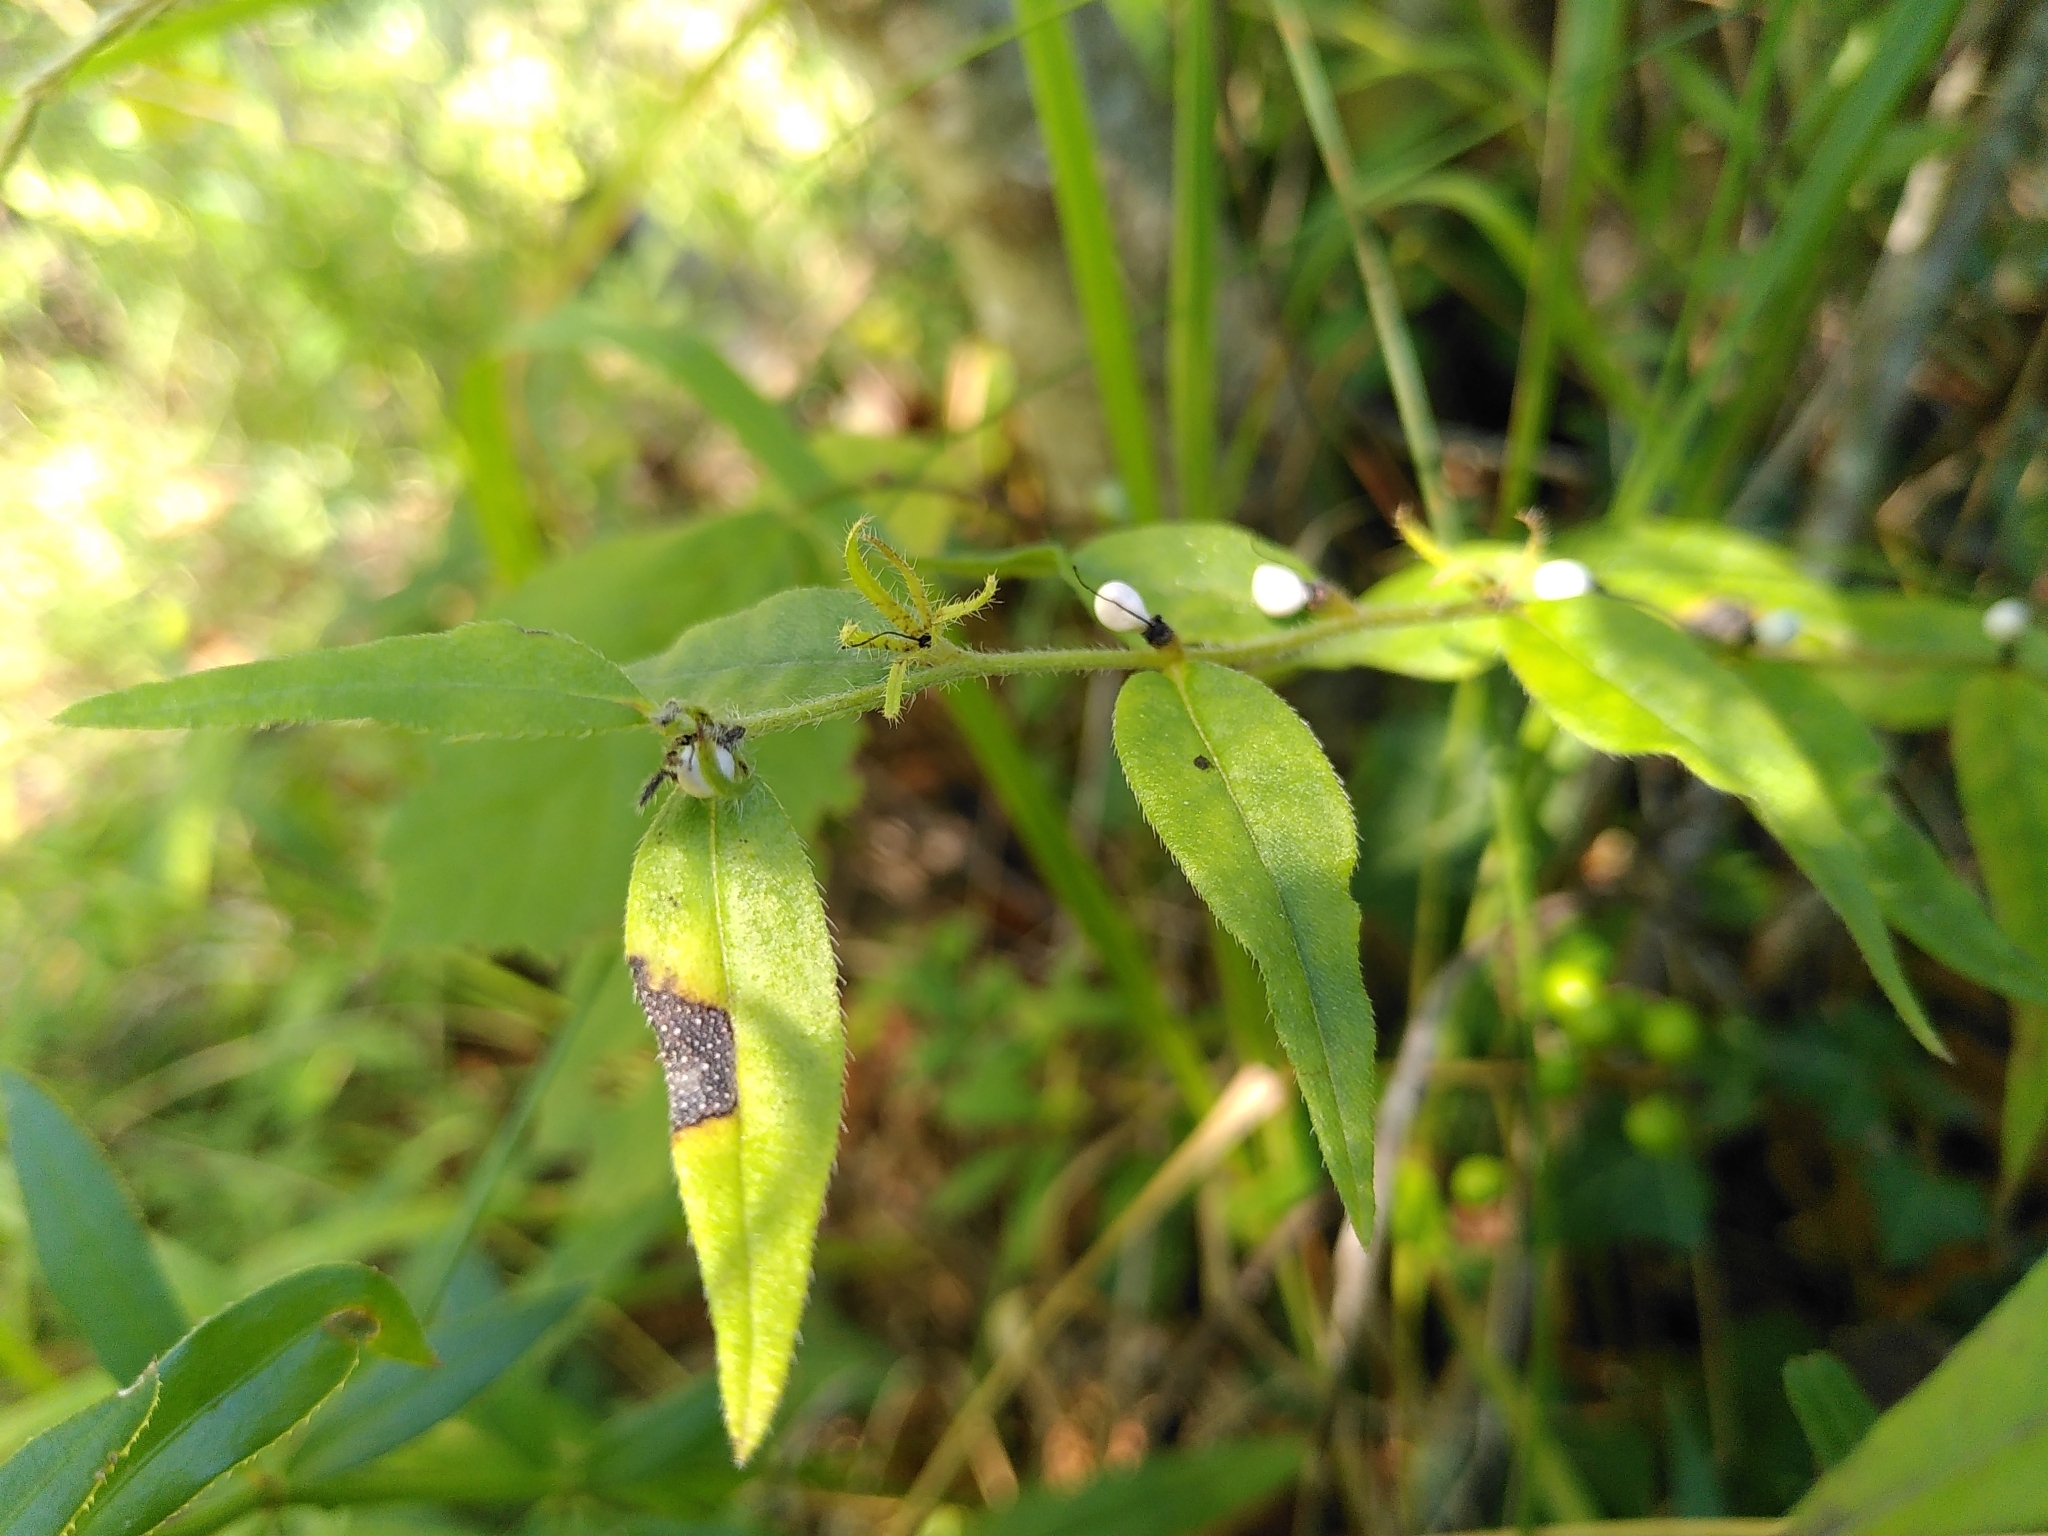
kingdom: Plantae
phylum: Tracheophyta
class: Magnoliopsida
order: Boraginales
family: Boraginaceae
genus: Lithospermum
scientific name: Lithospermum officinale
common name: Common gromwell
